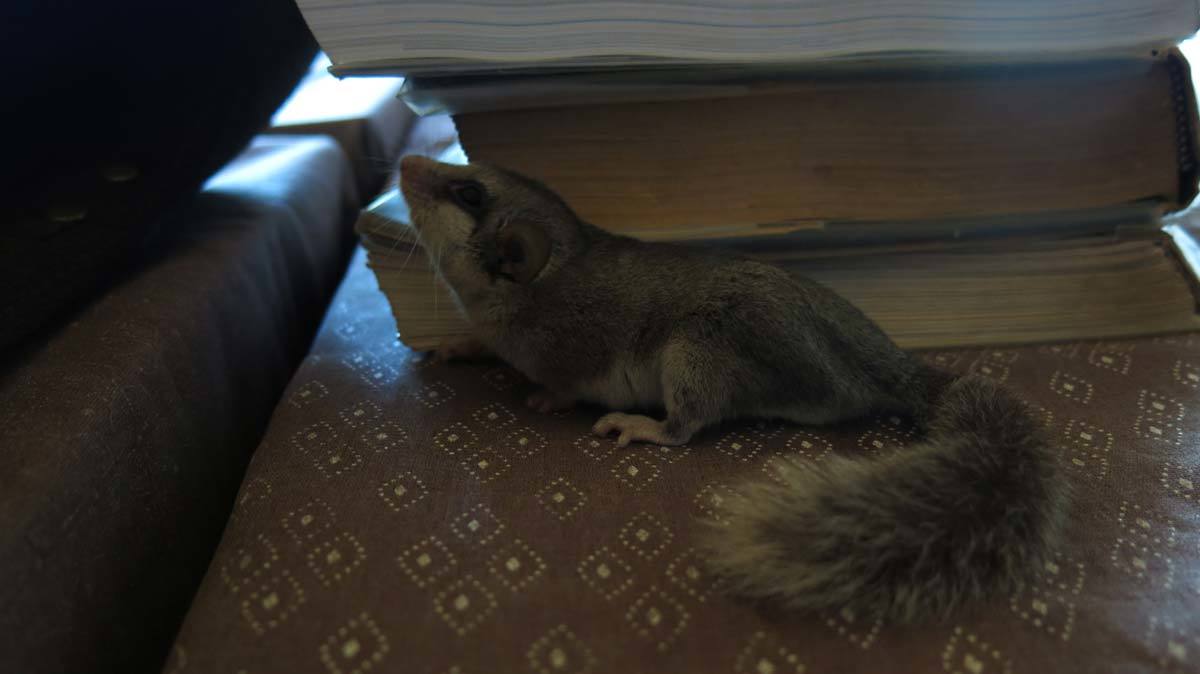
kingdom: Animalia
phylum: Chordata
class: Mammalia
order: Rodentia
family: Gliridae
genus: Graphiurus
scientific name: Graphiurus murinus
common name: Forest african dormouse
